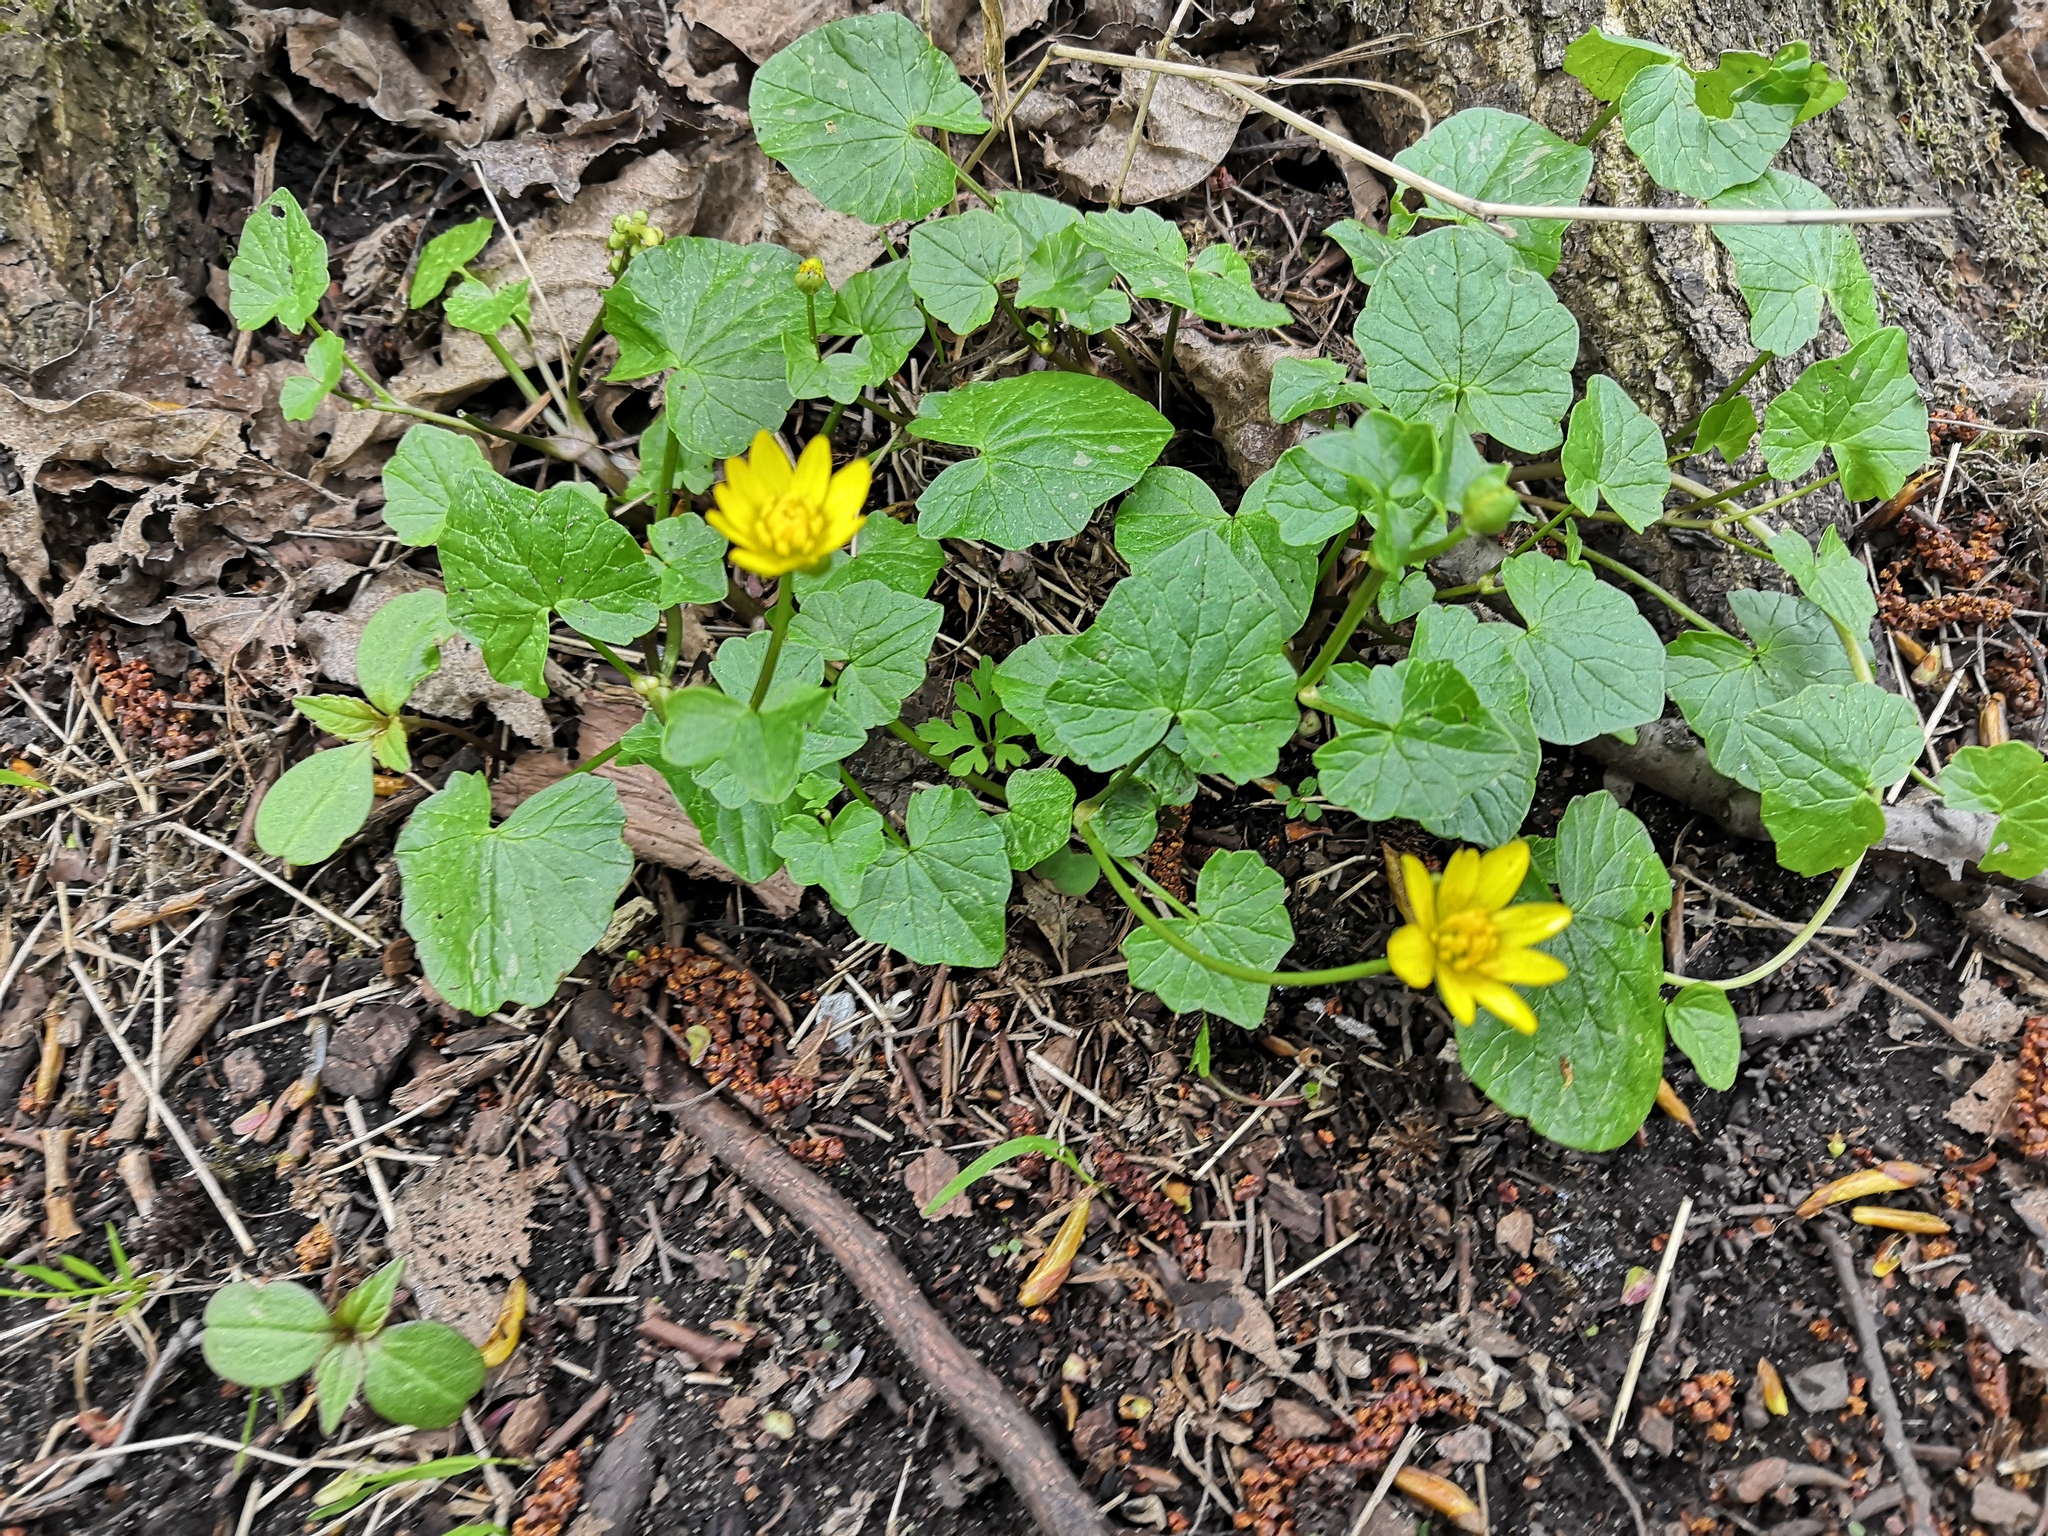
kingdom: Plantae
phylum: Tracheophyta
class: Magnoliopsida
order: Ranunculales
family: Ranunculaceae
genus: Ficaria
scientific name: Ficaria verna
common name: Lesser celandine
